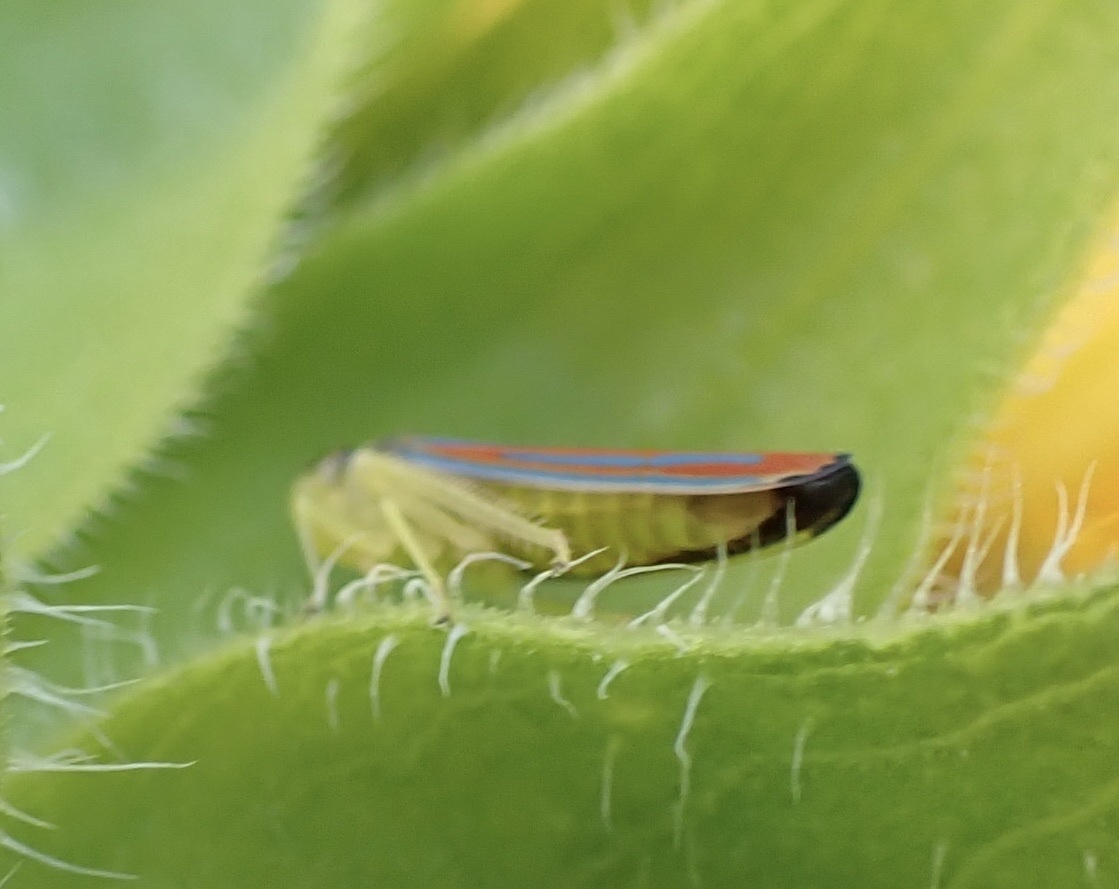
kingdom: Animalia
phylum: Arthropoda
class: Insecta
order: Hemiptera
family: Cicadellidae
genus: Graphocephala
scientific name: Graphocephala coccinea
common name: Candy-striped leafhopper
